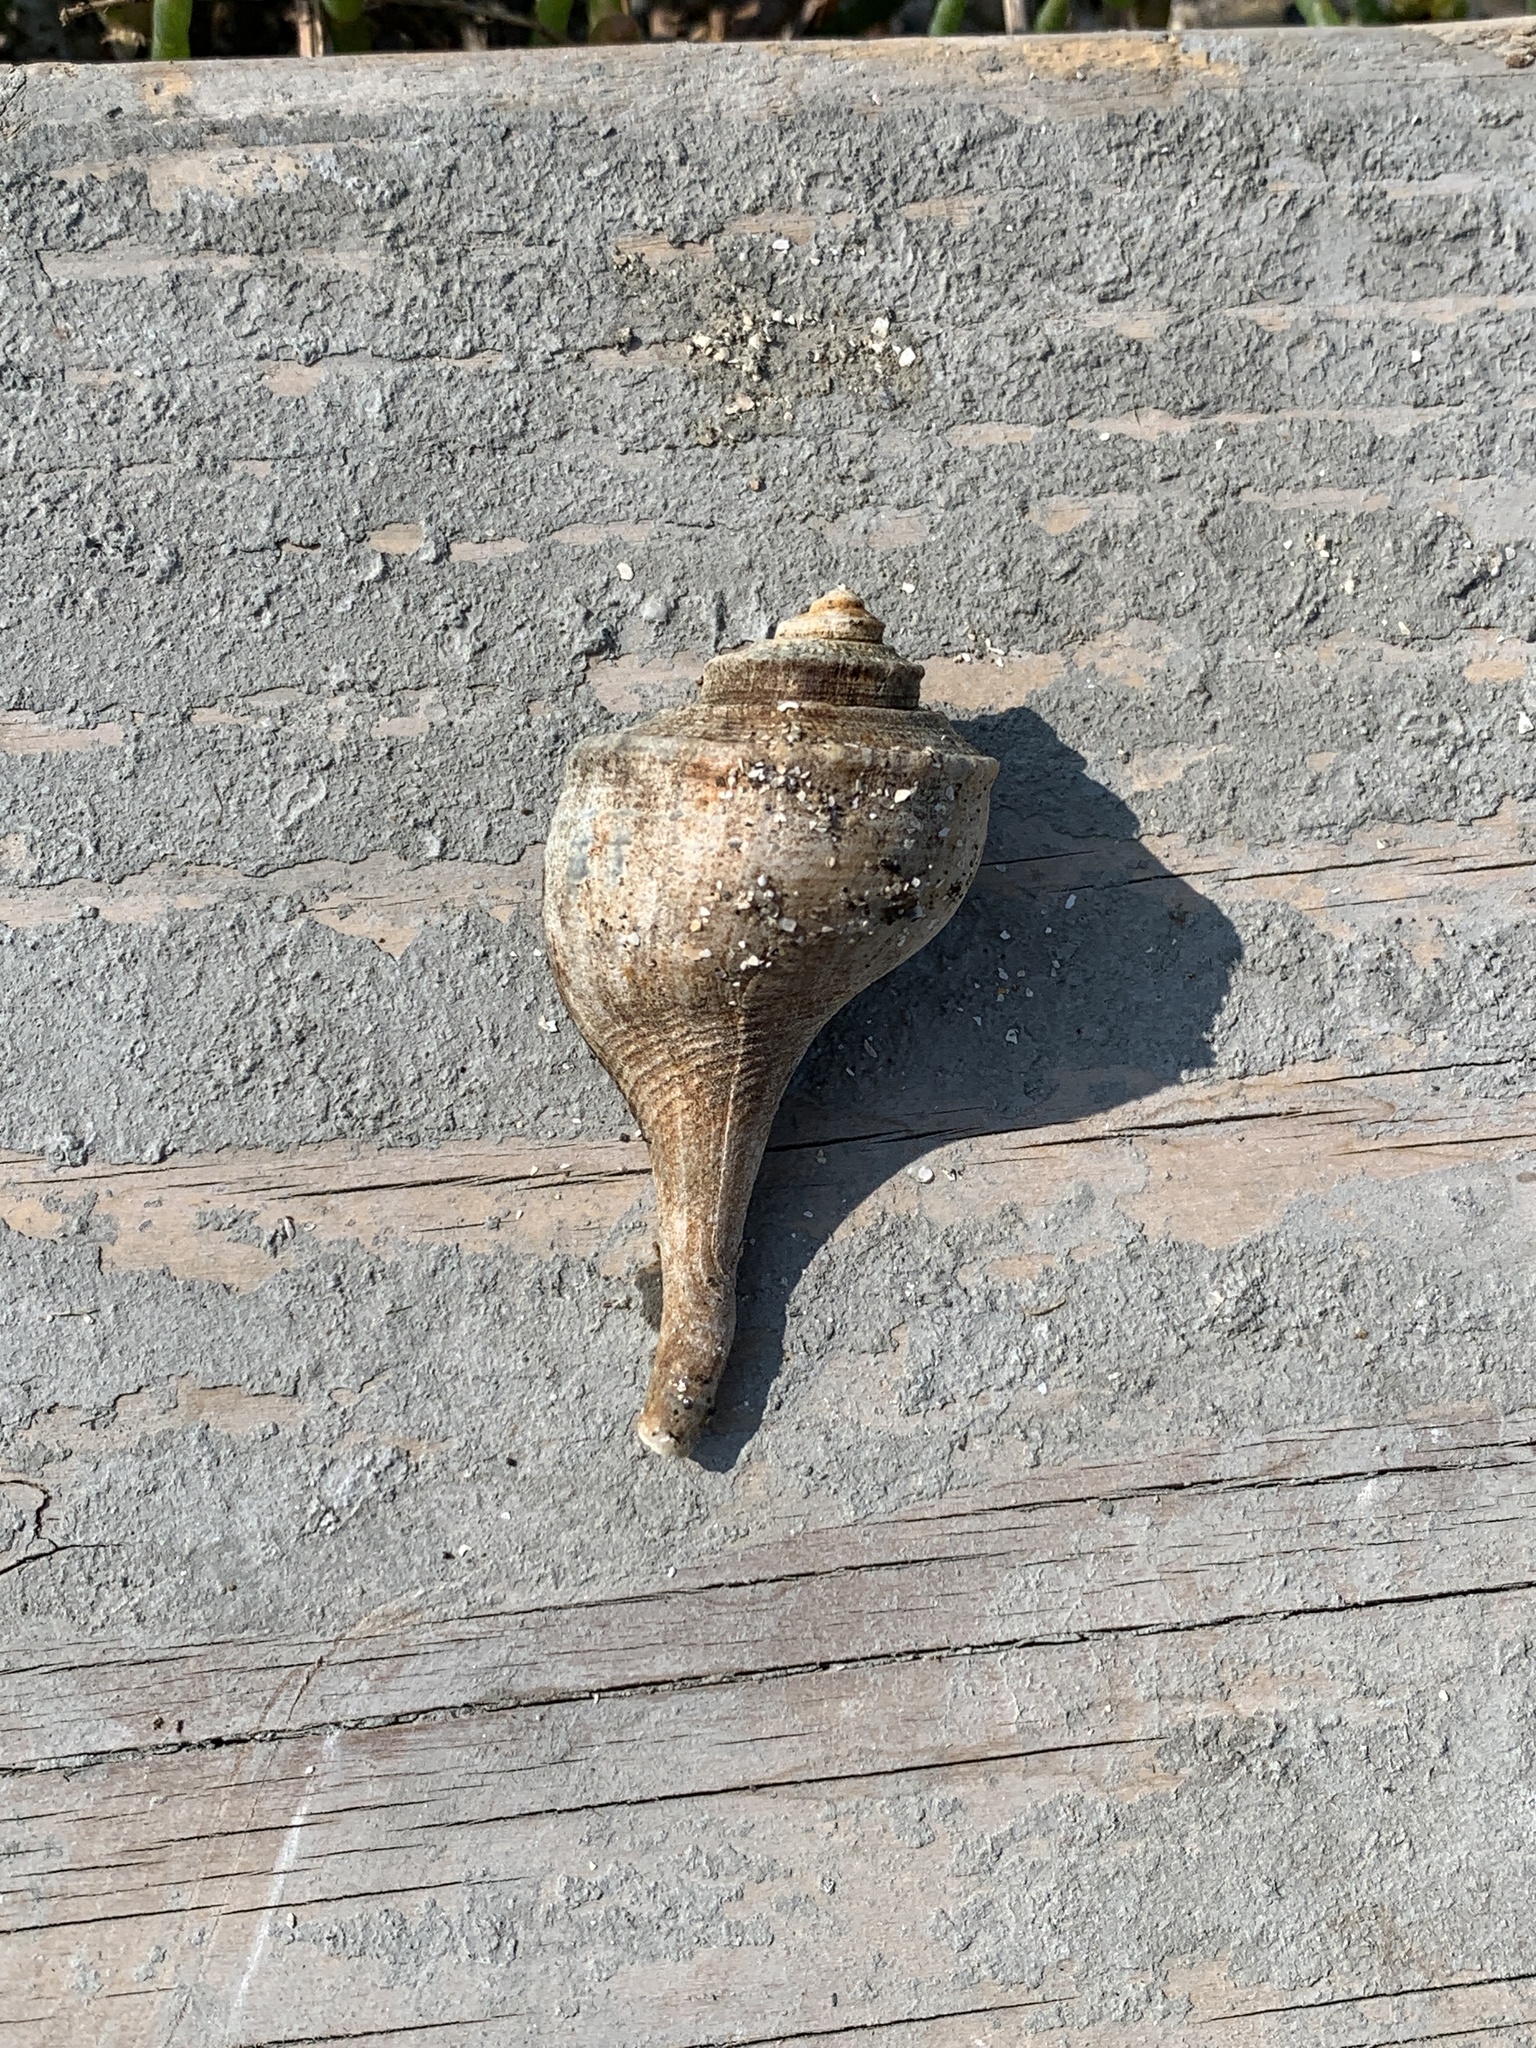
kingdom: Animalia
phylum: Mollusca
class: Gastropoda
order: Neogastropoda
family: Busyconidae
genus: Busycotypus
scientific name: Busycotypus canaliculatus
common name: Channeled whelk
